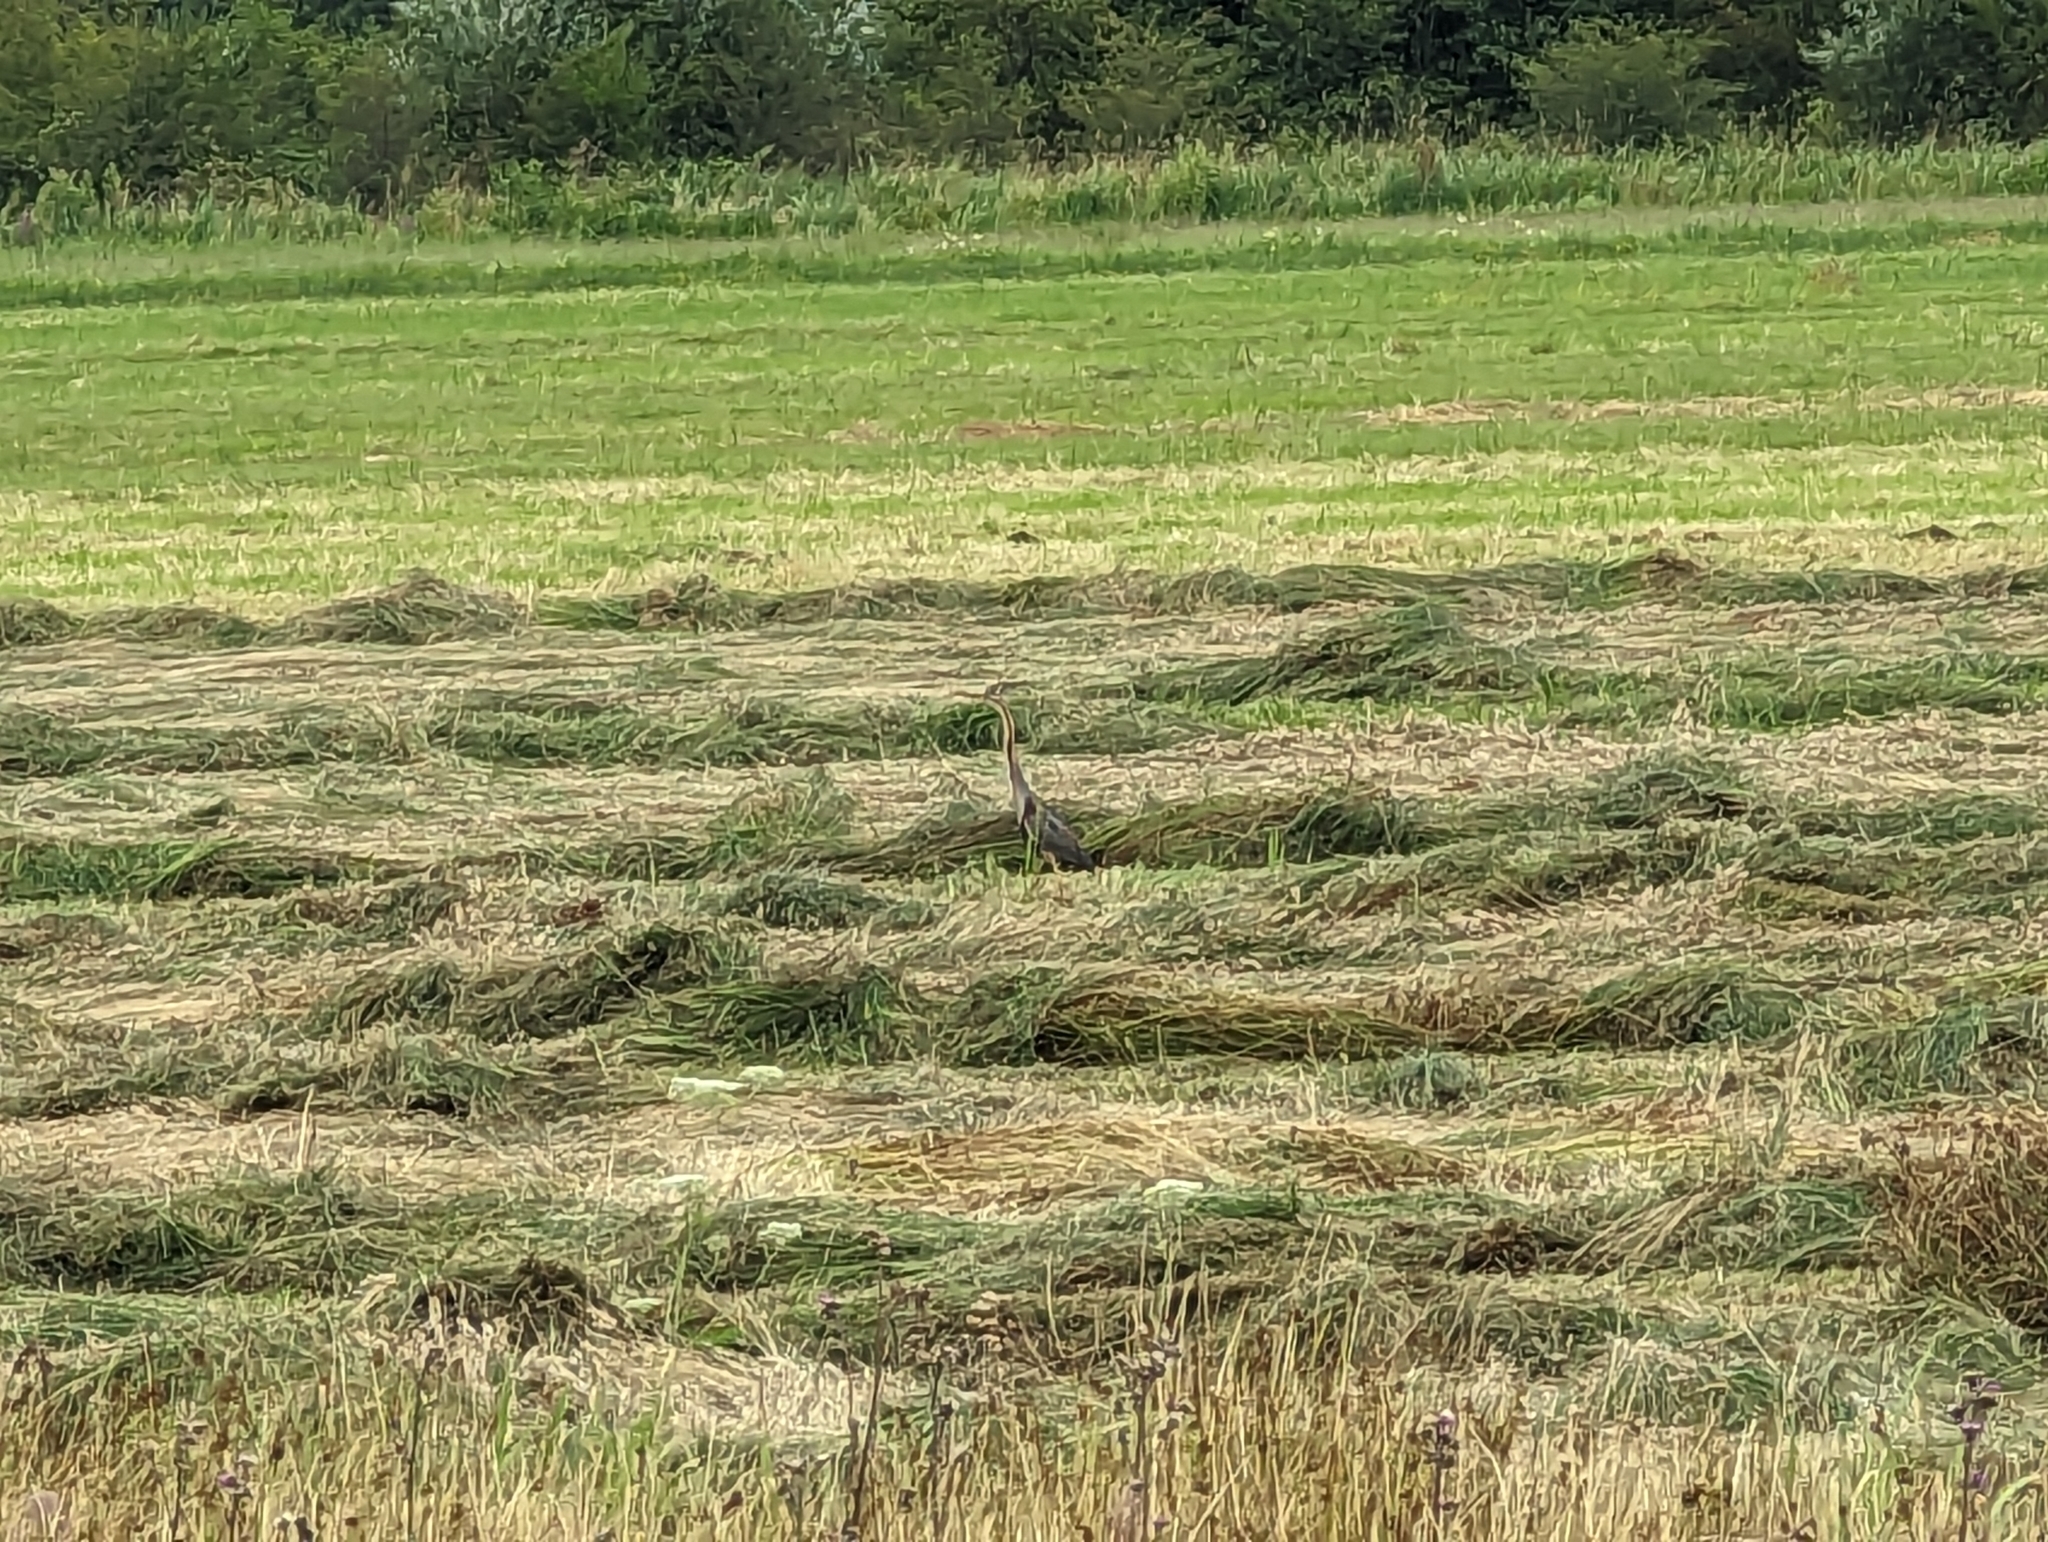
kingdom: Animalia
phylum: Chordata
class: Aves
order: Pelecaniformes
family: Ardeidae
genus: Ardea
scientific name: Ardea purpurea
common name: Purple heron
